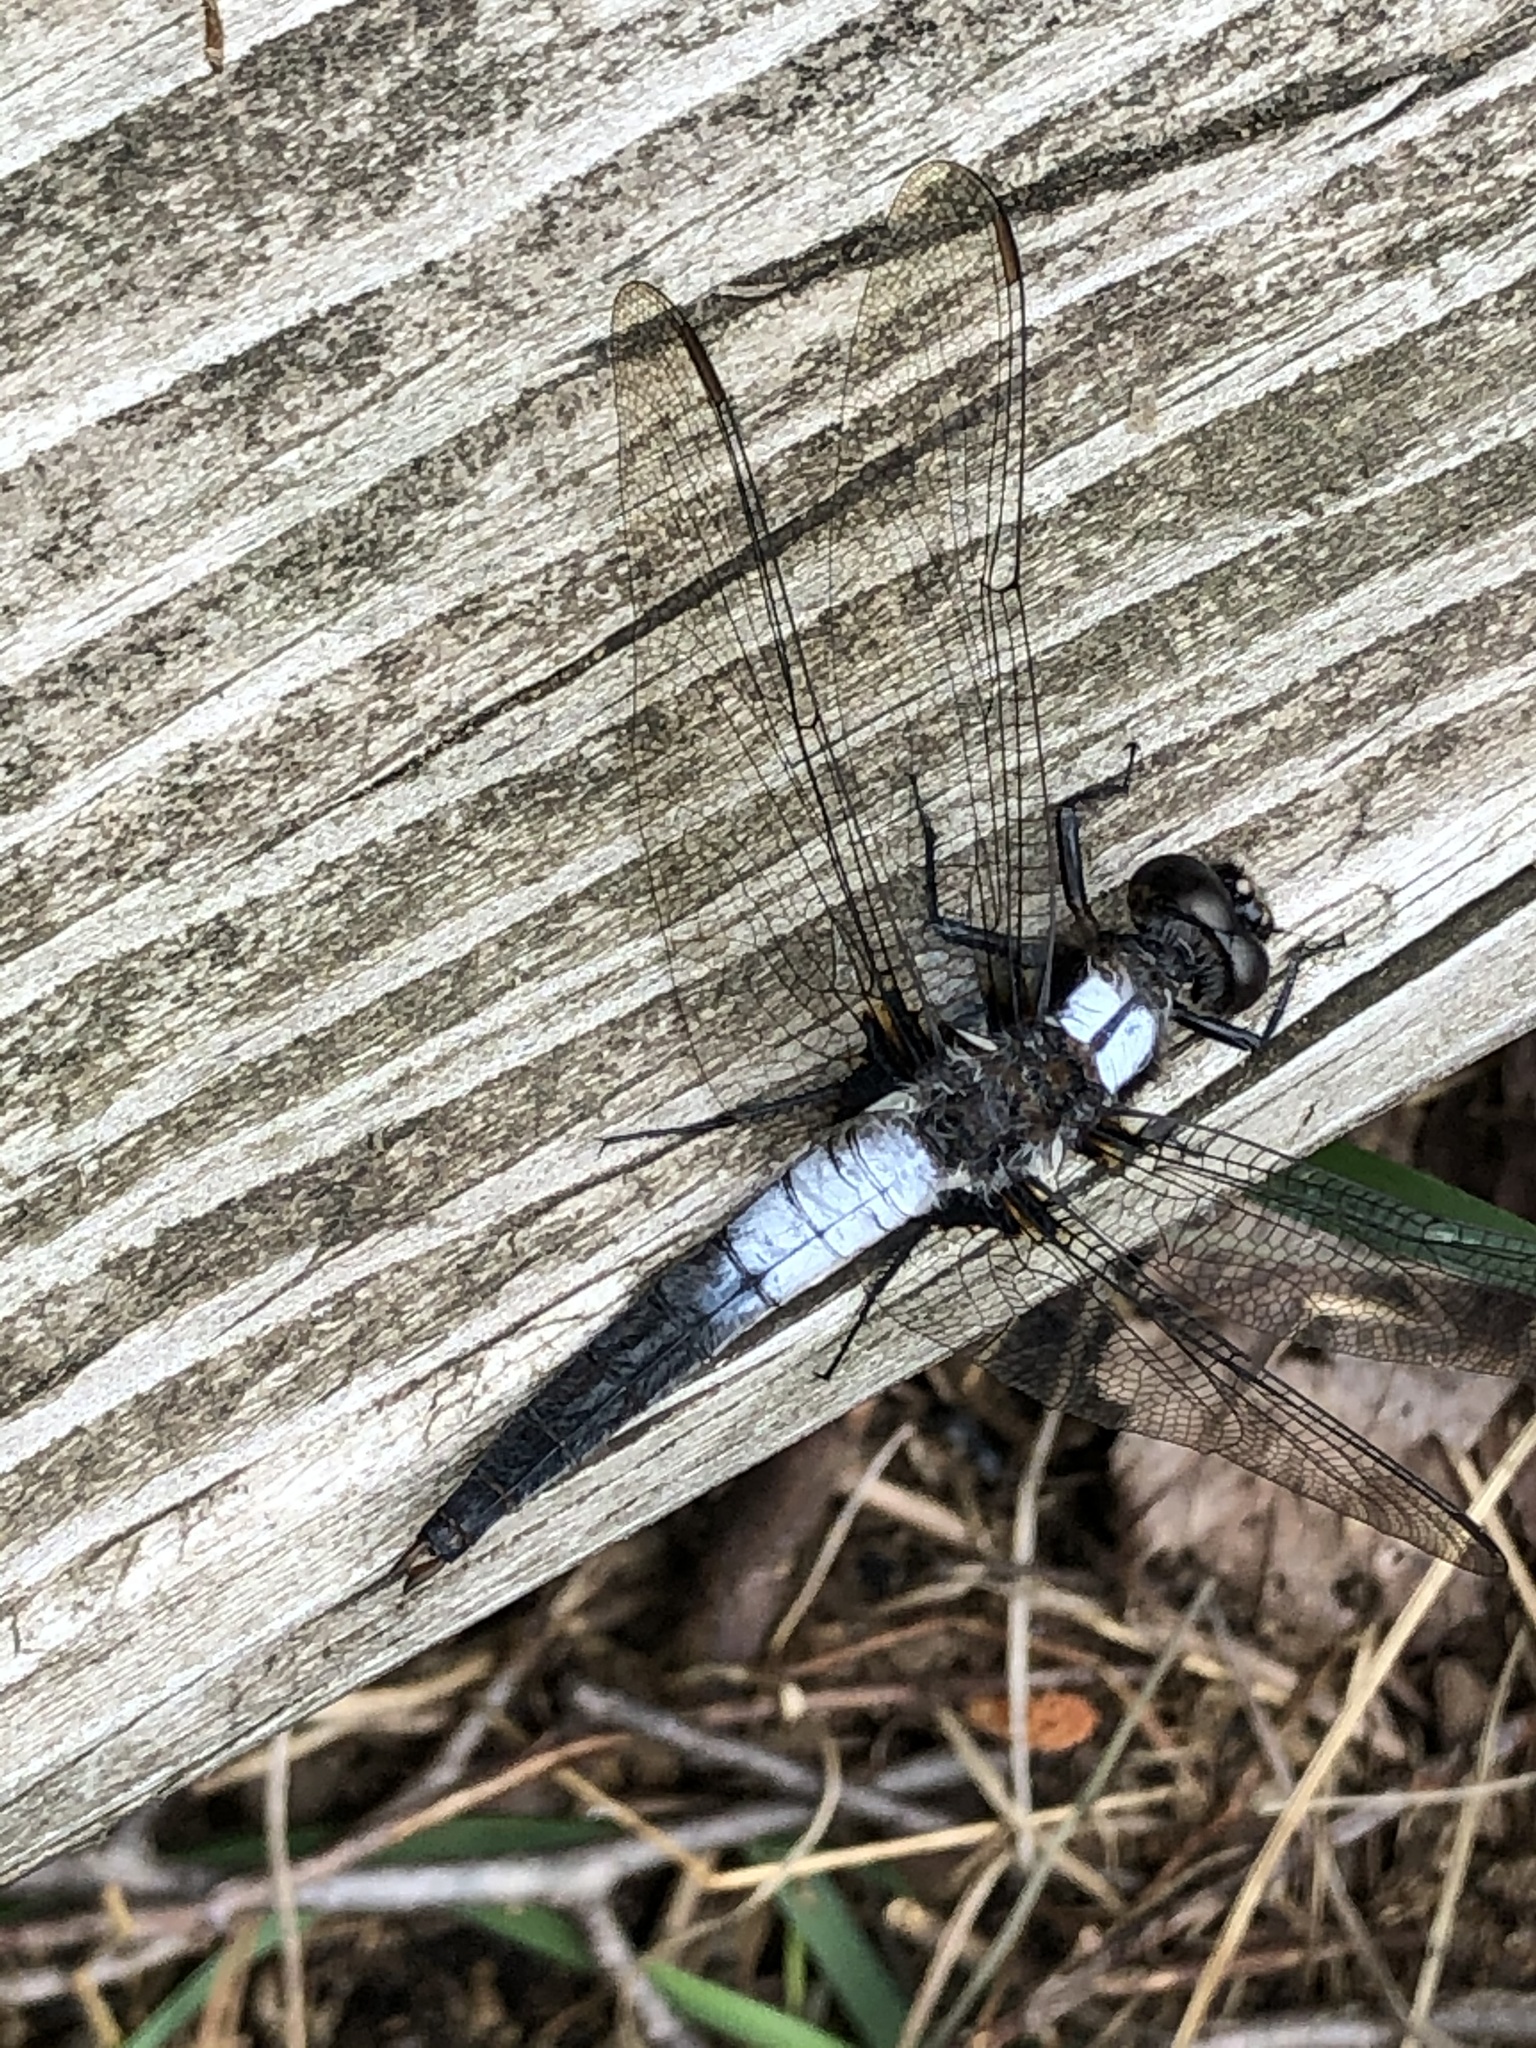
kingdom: Animalia
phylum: Arthropoda
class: Insecta
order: Odonata
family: Libellulidae
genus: Ladona
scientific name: Ladona julia
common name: Chalk-fronted corporal
